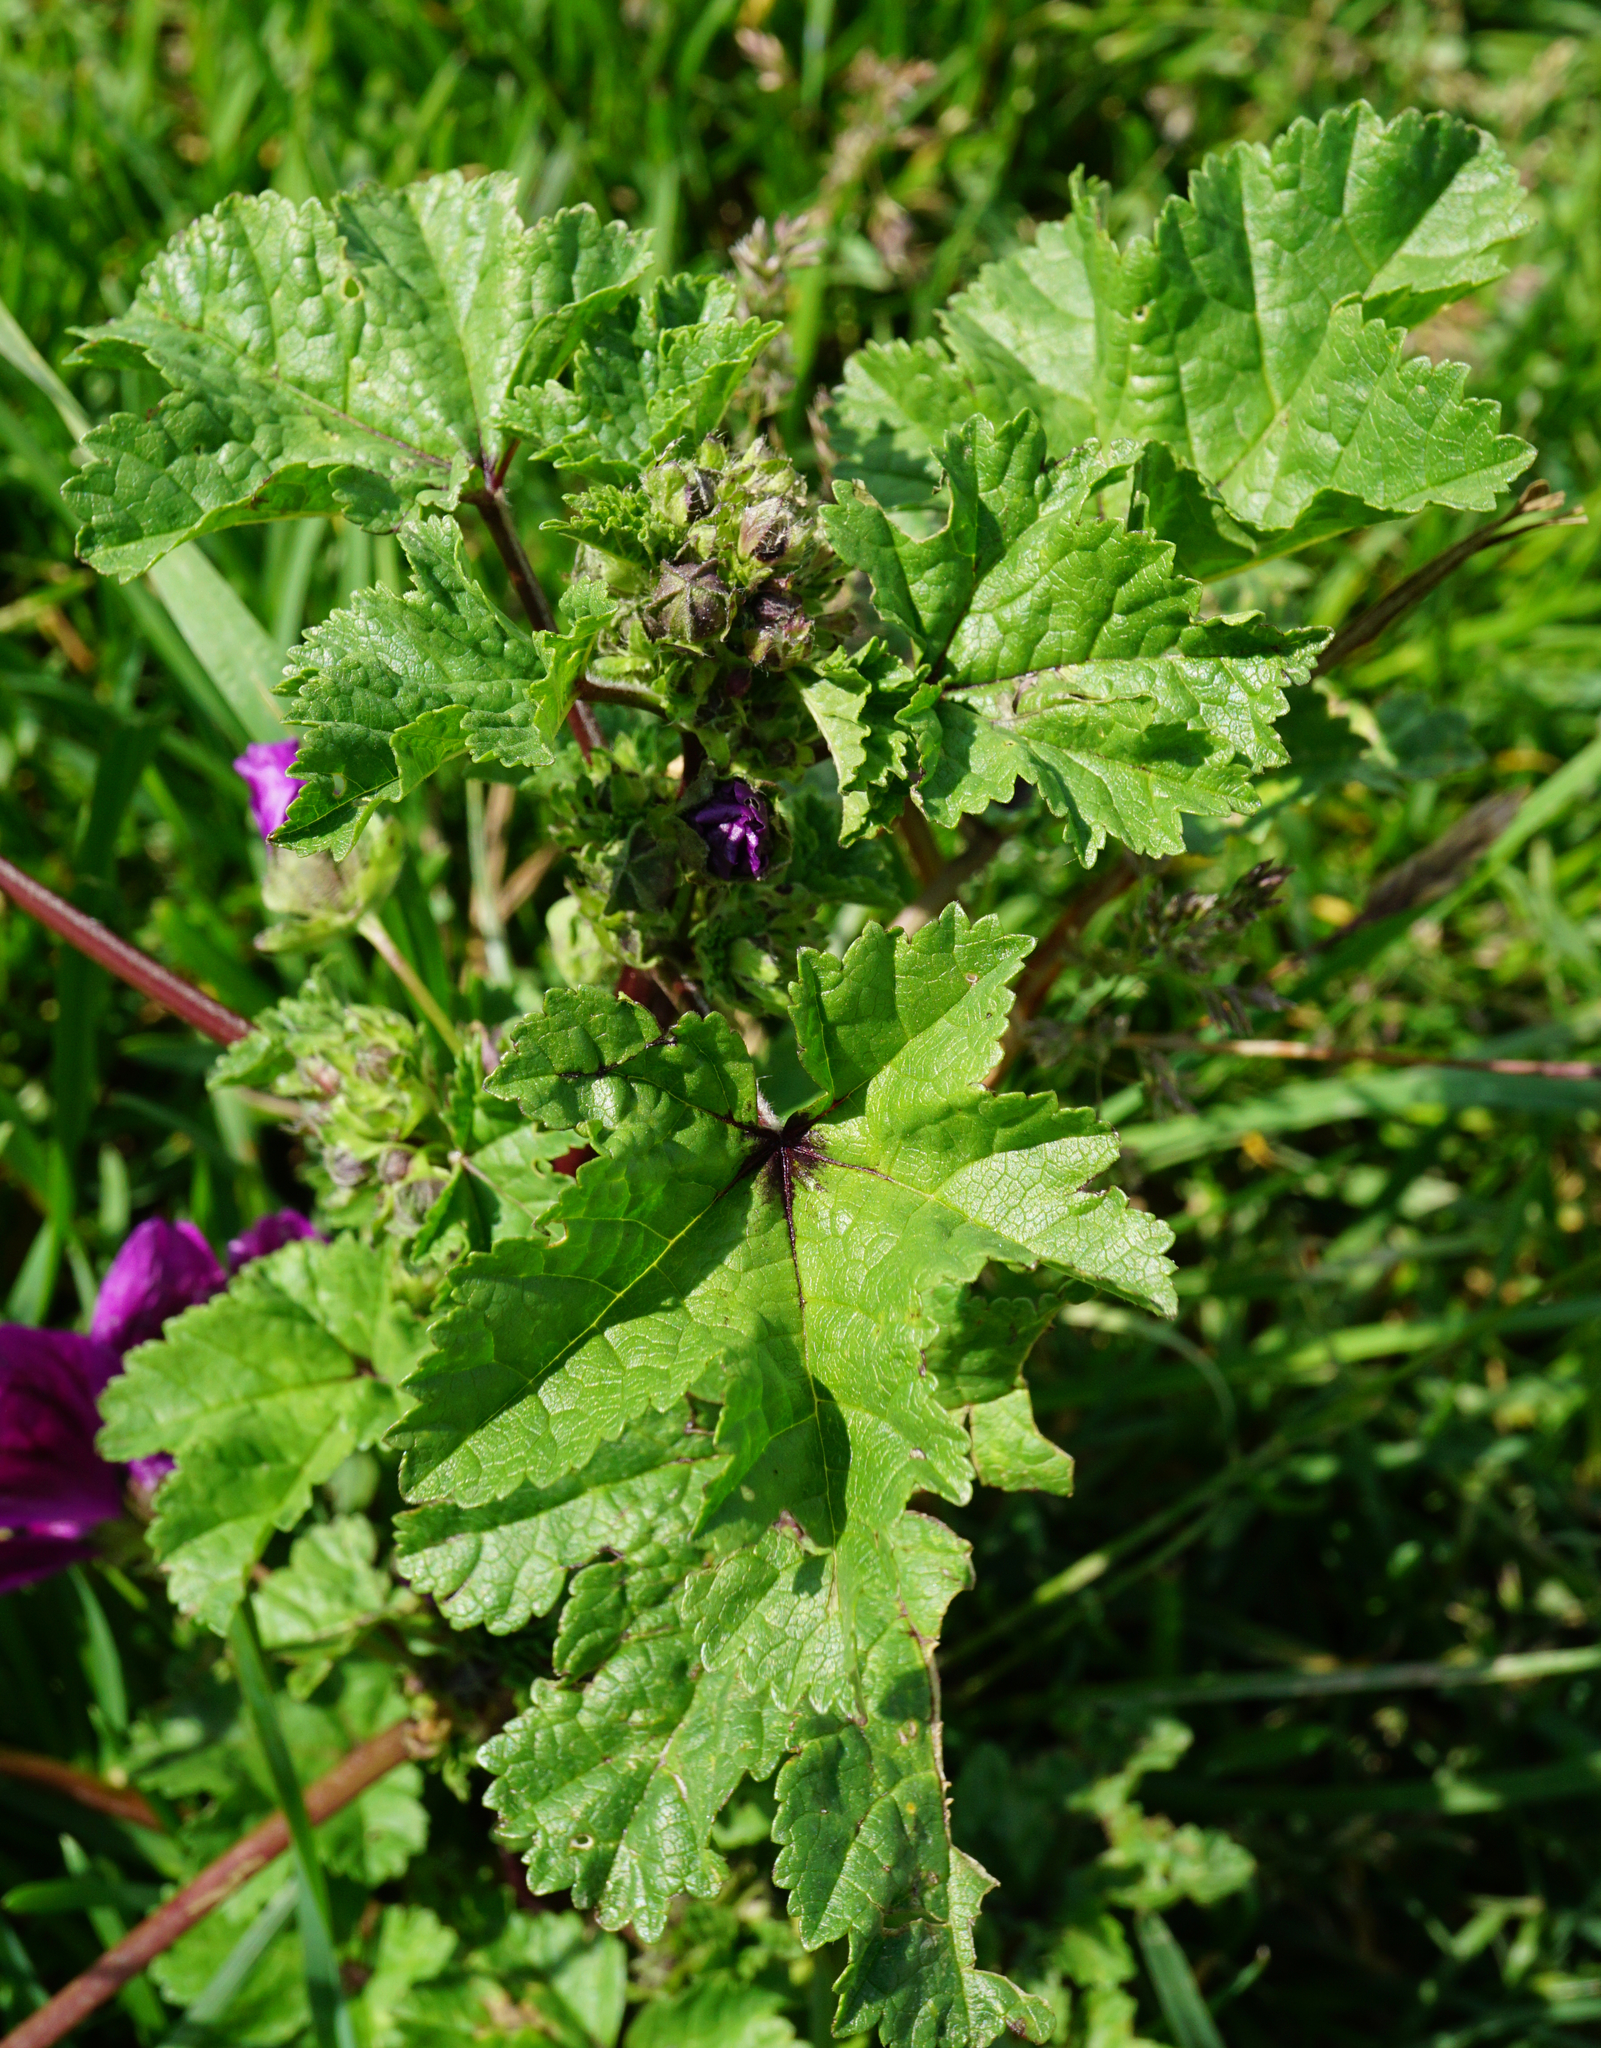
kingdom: Plantae
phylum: Tracheophyta
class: Magnoliopsida
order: Malvales
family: Malvaceae
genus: Malva
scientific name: Malva sylvestris
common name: Common mallow
